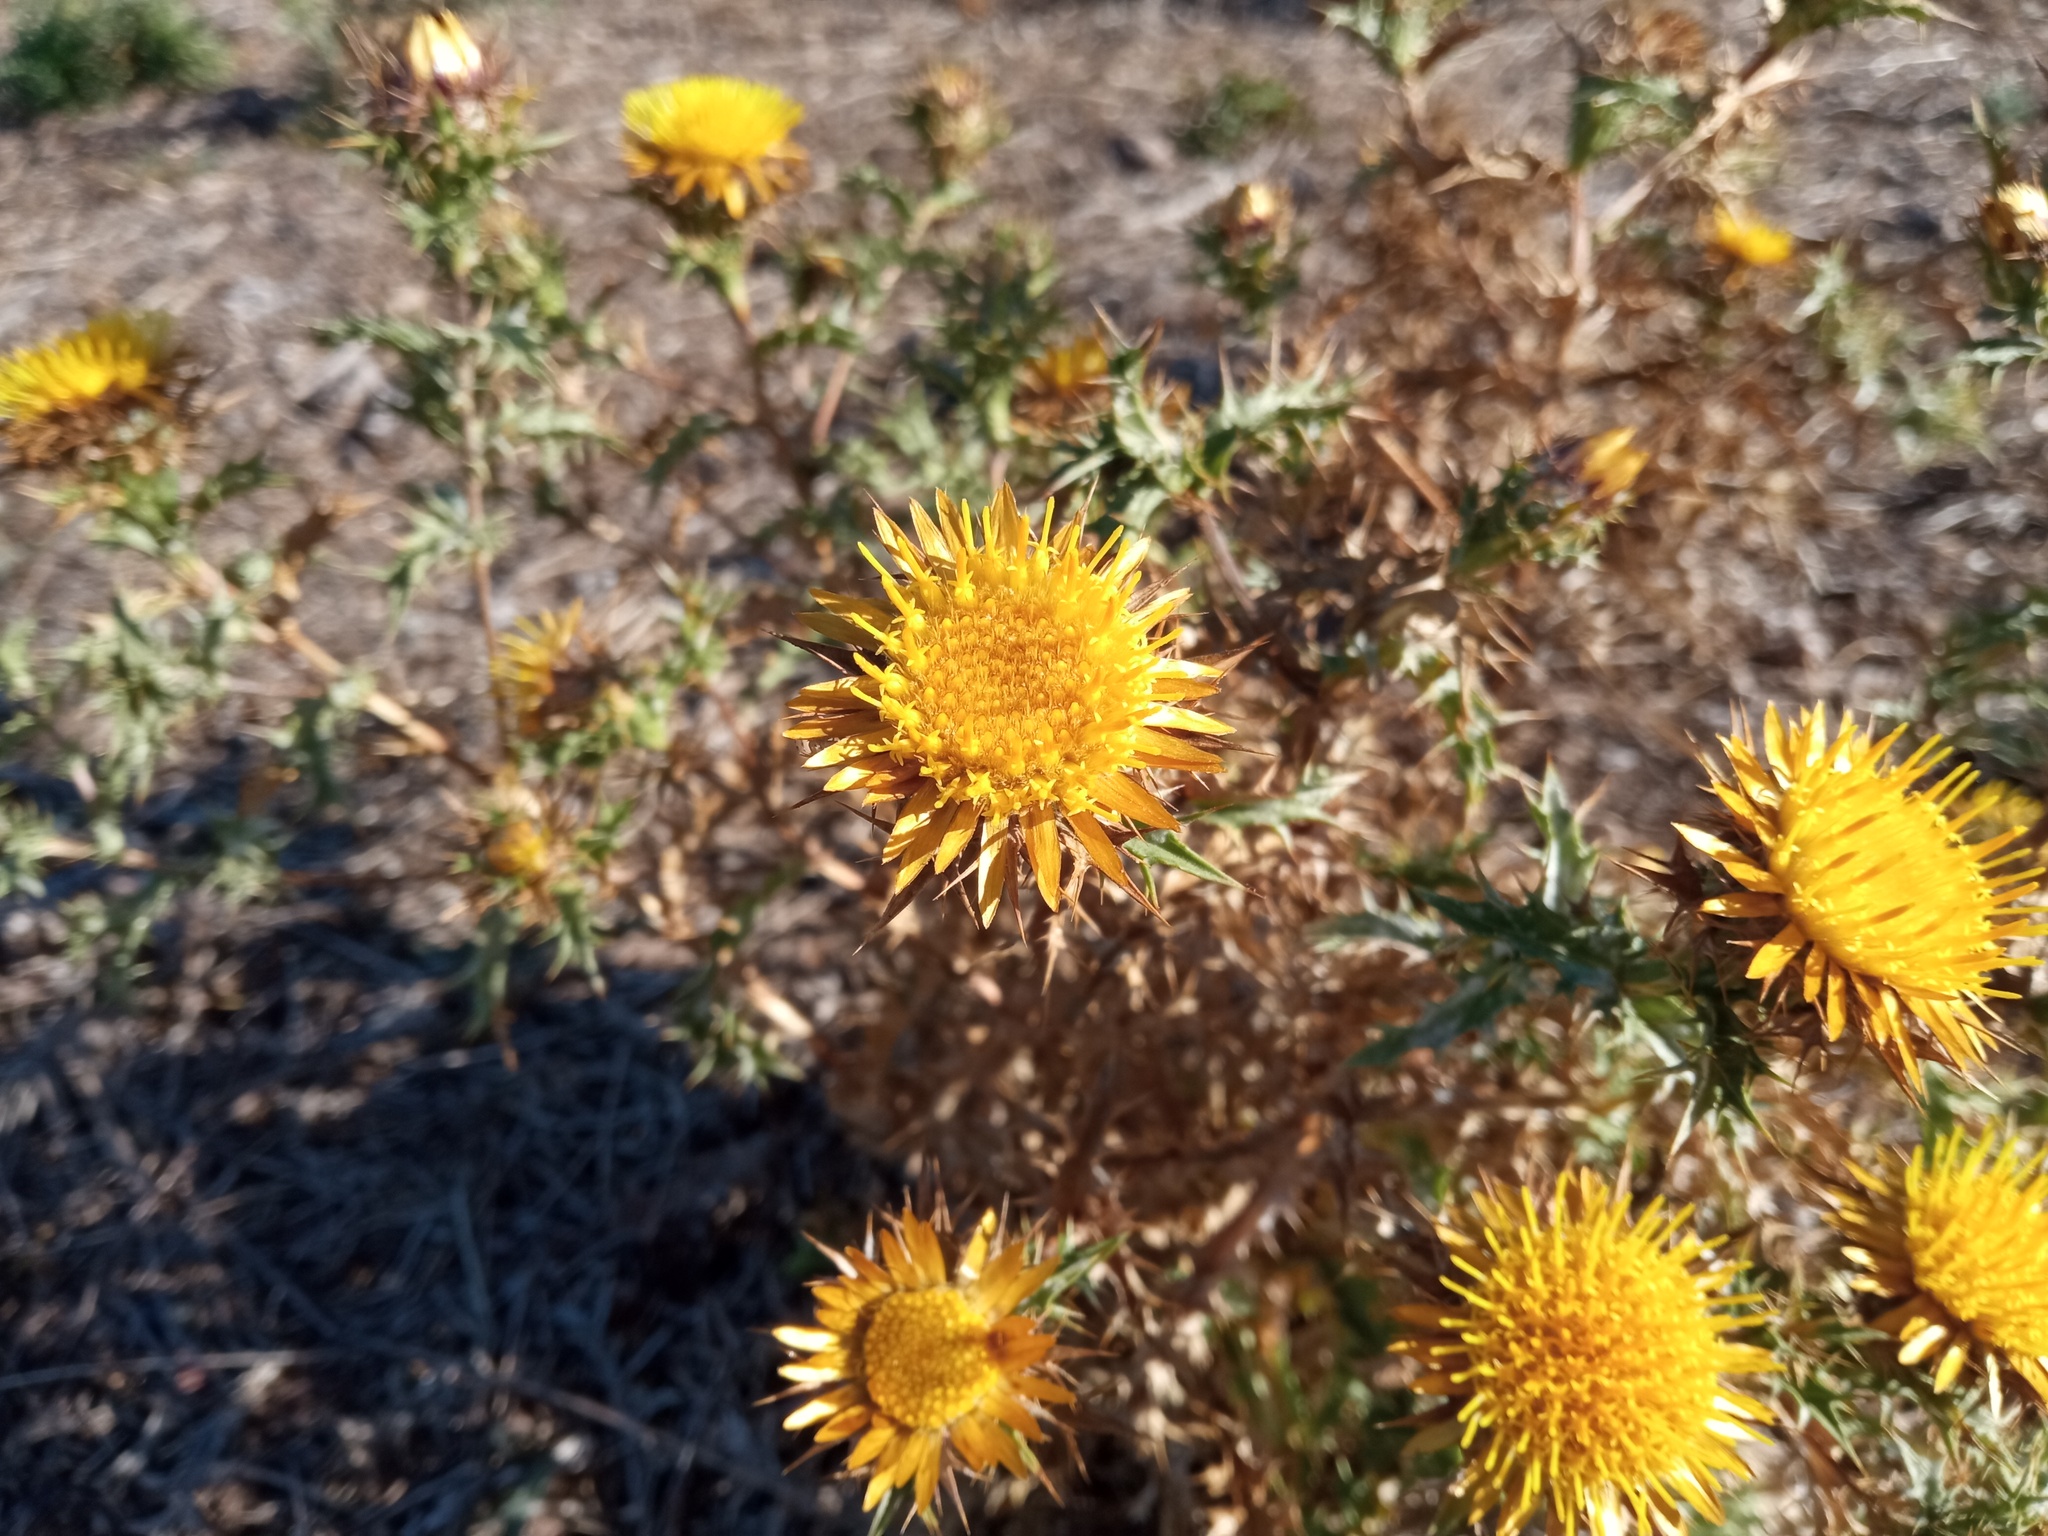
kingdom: Plantae
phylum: Tracheophyta
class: Magnoliopsida
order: Asterales
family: Asteraceae
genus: Carlina
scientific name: Carlina hispanica
